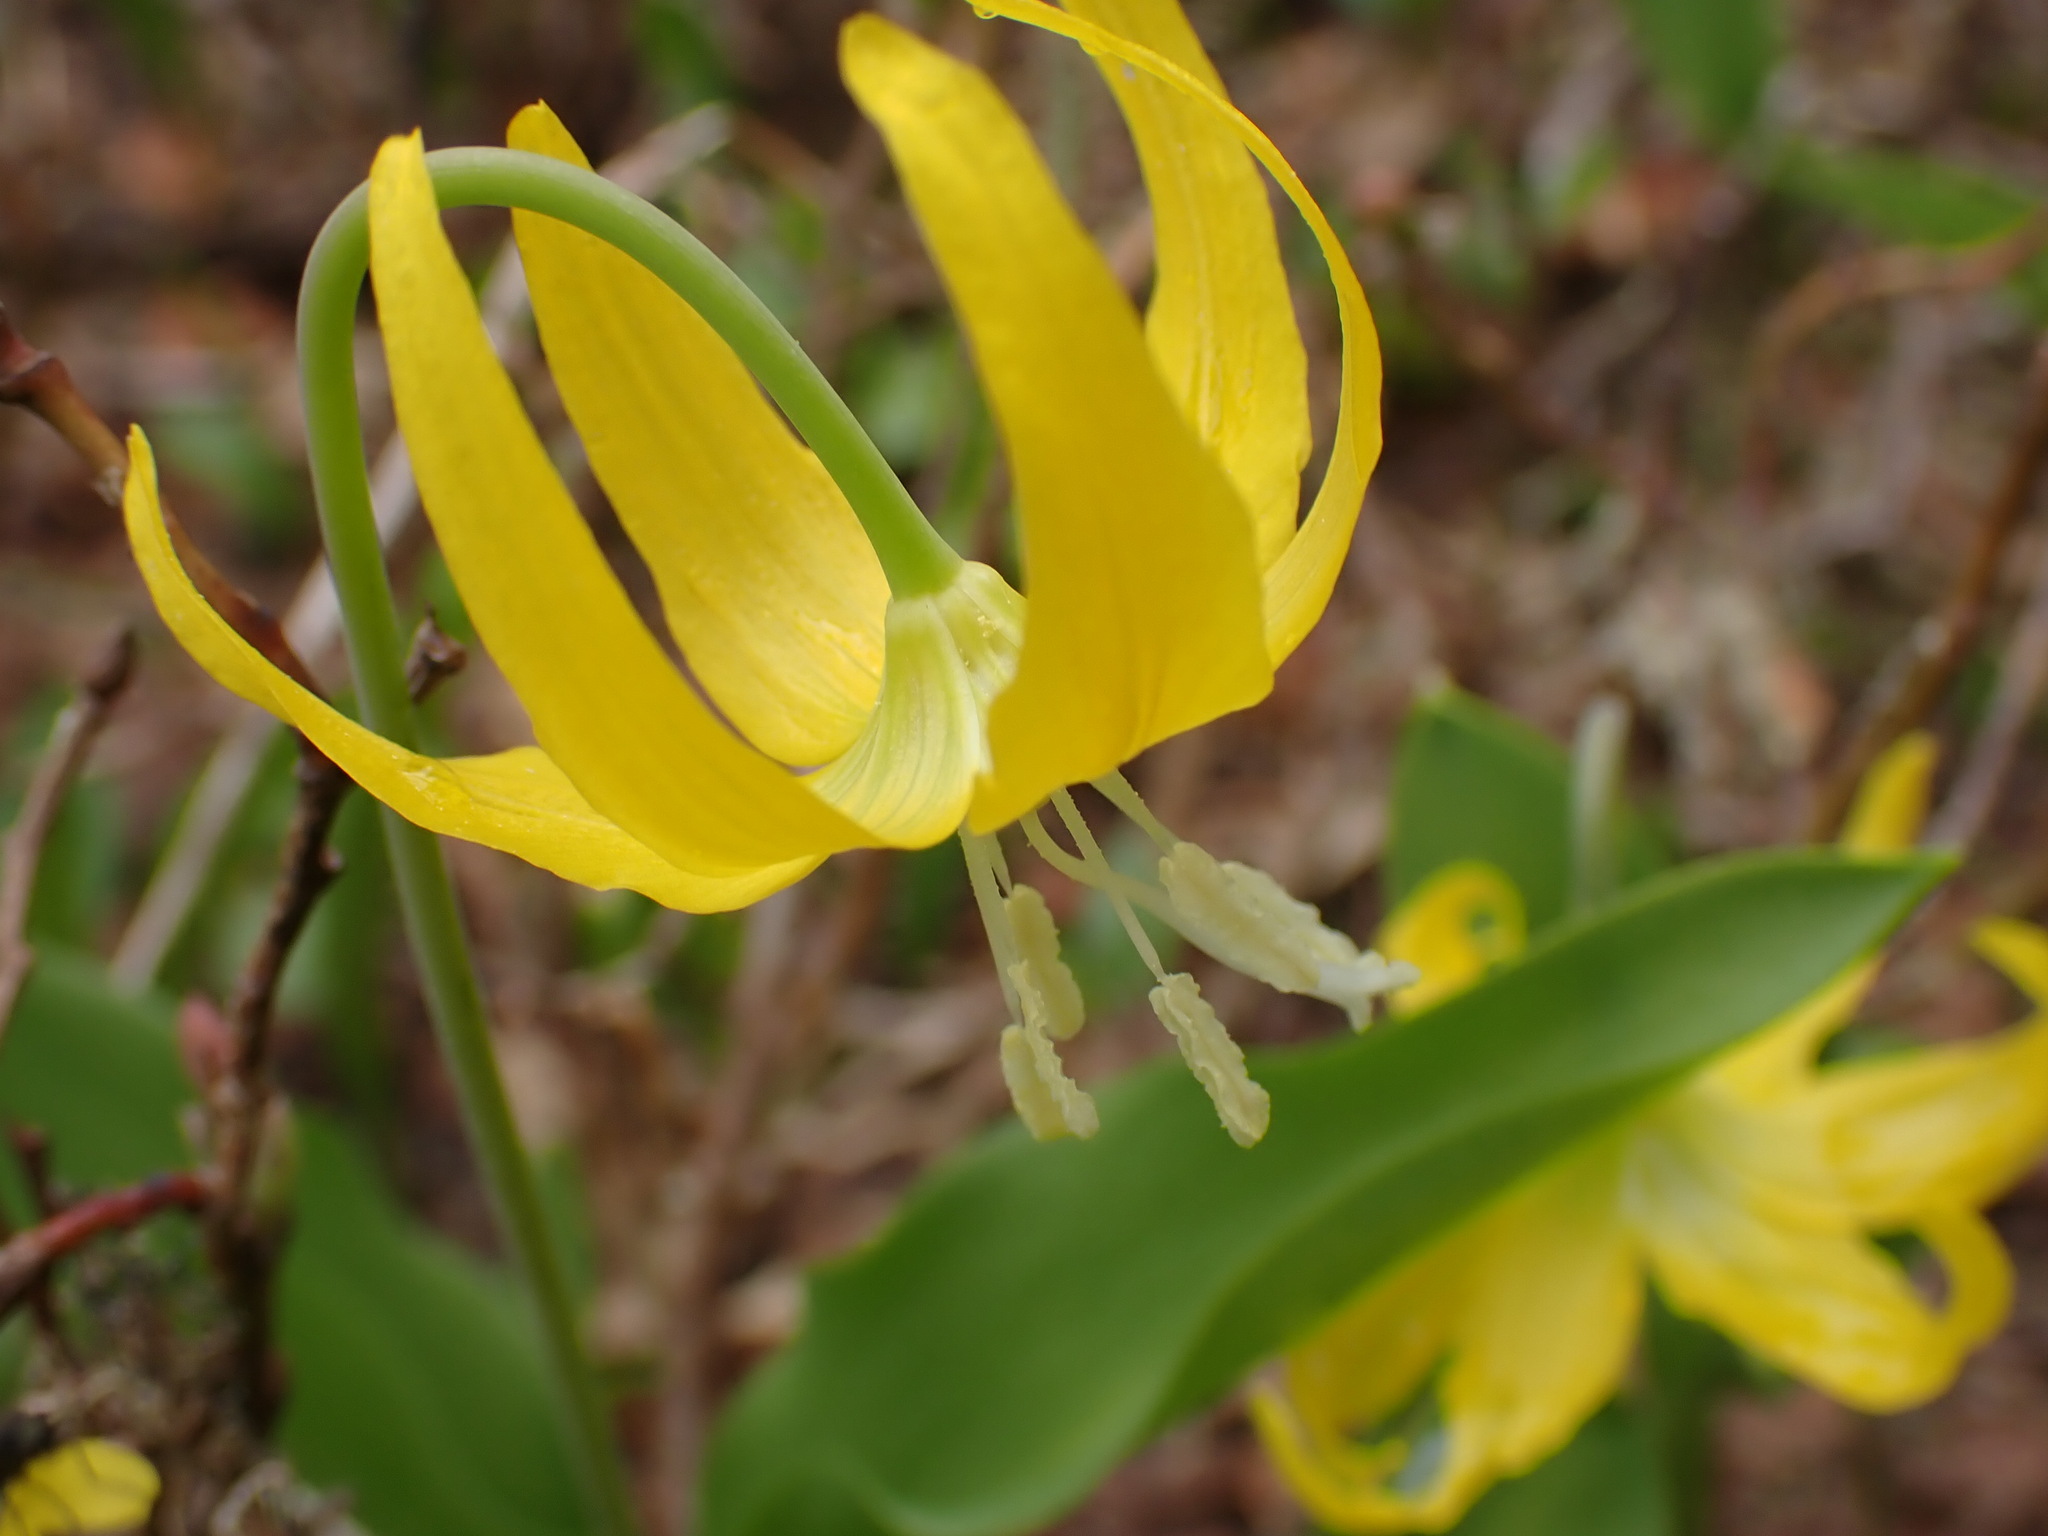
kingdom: Plantae
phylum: Tracheophyta
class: Liliopsida
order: Liliales
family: Liliaceae
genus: Erythronium
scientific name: Erythronium grandiflorum
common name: Avalanche-lily
